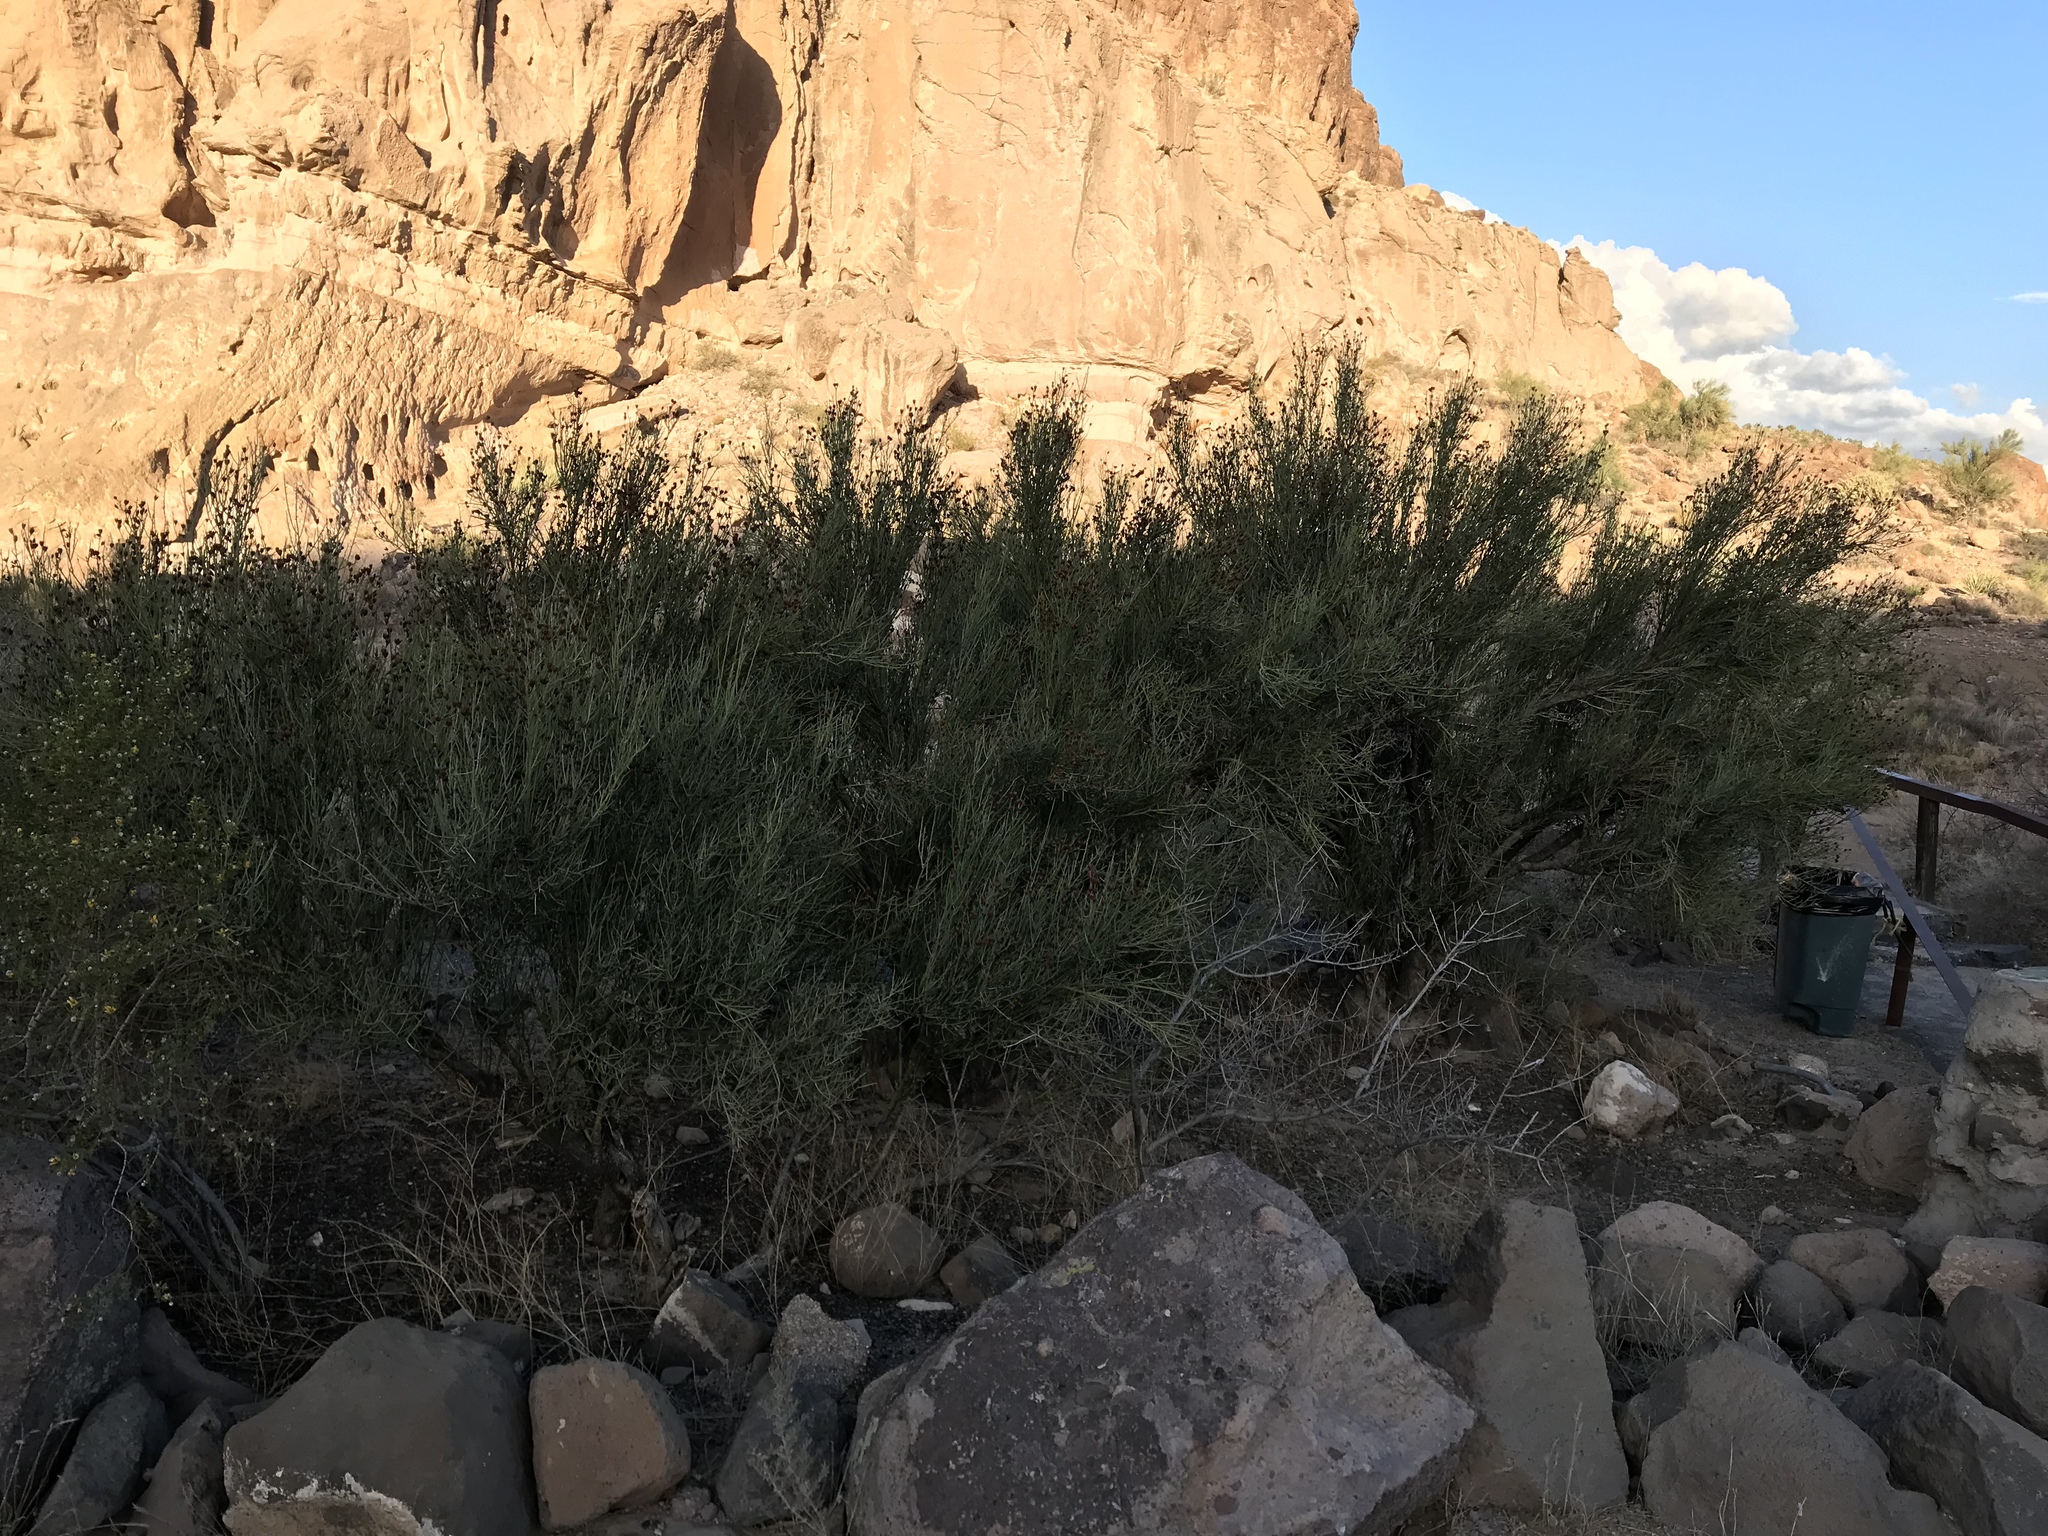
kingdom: Plantae
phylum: Tracheophyta
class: Magnoliopsida
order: Celastrales
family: Celastraceae
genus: Canotia
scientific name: Canotia holacantha
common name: Crucifixion thorns
